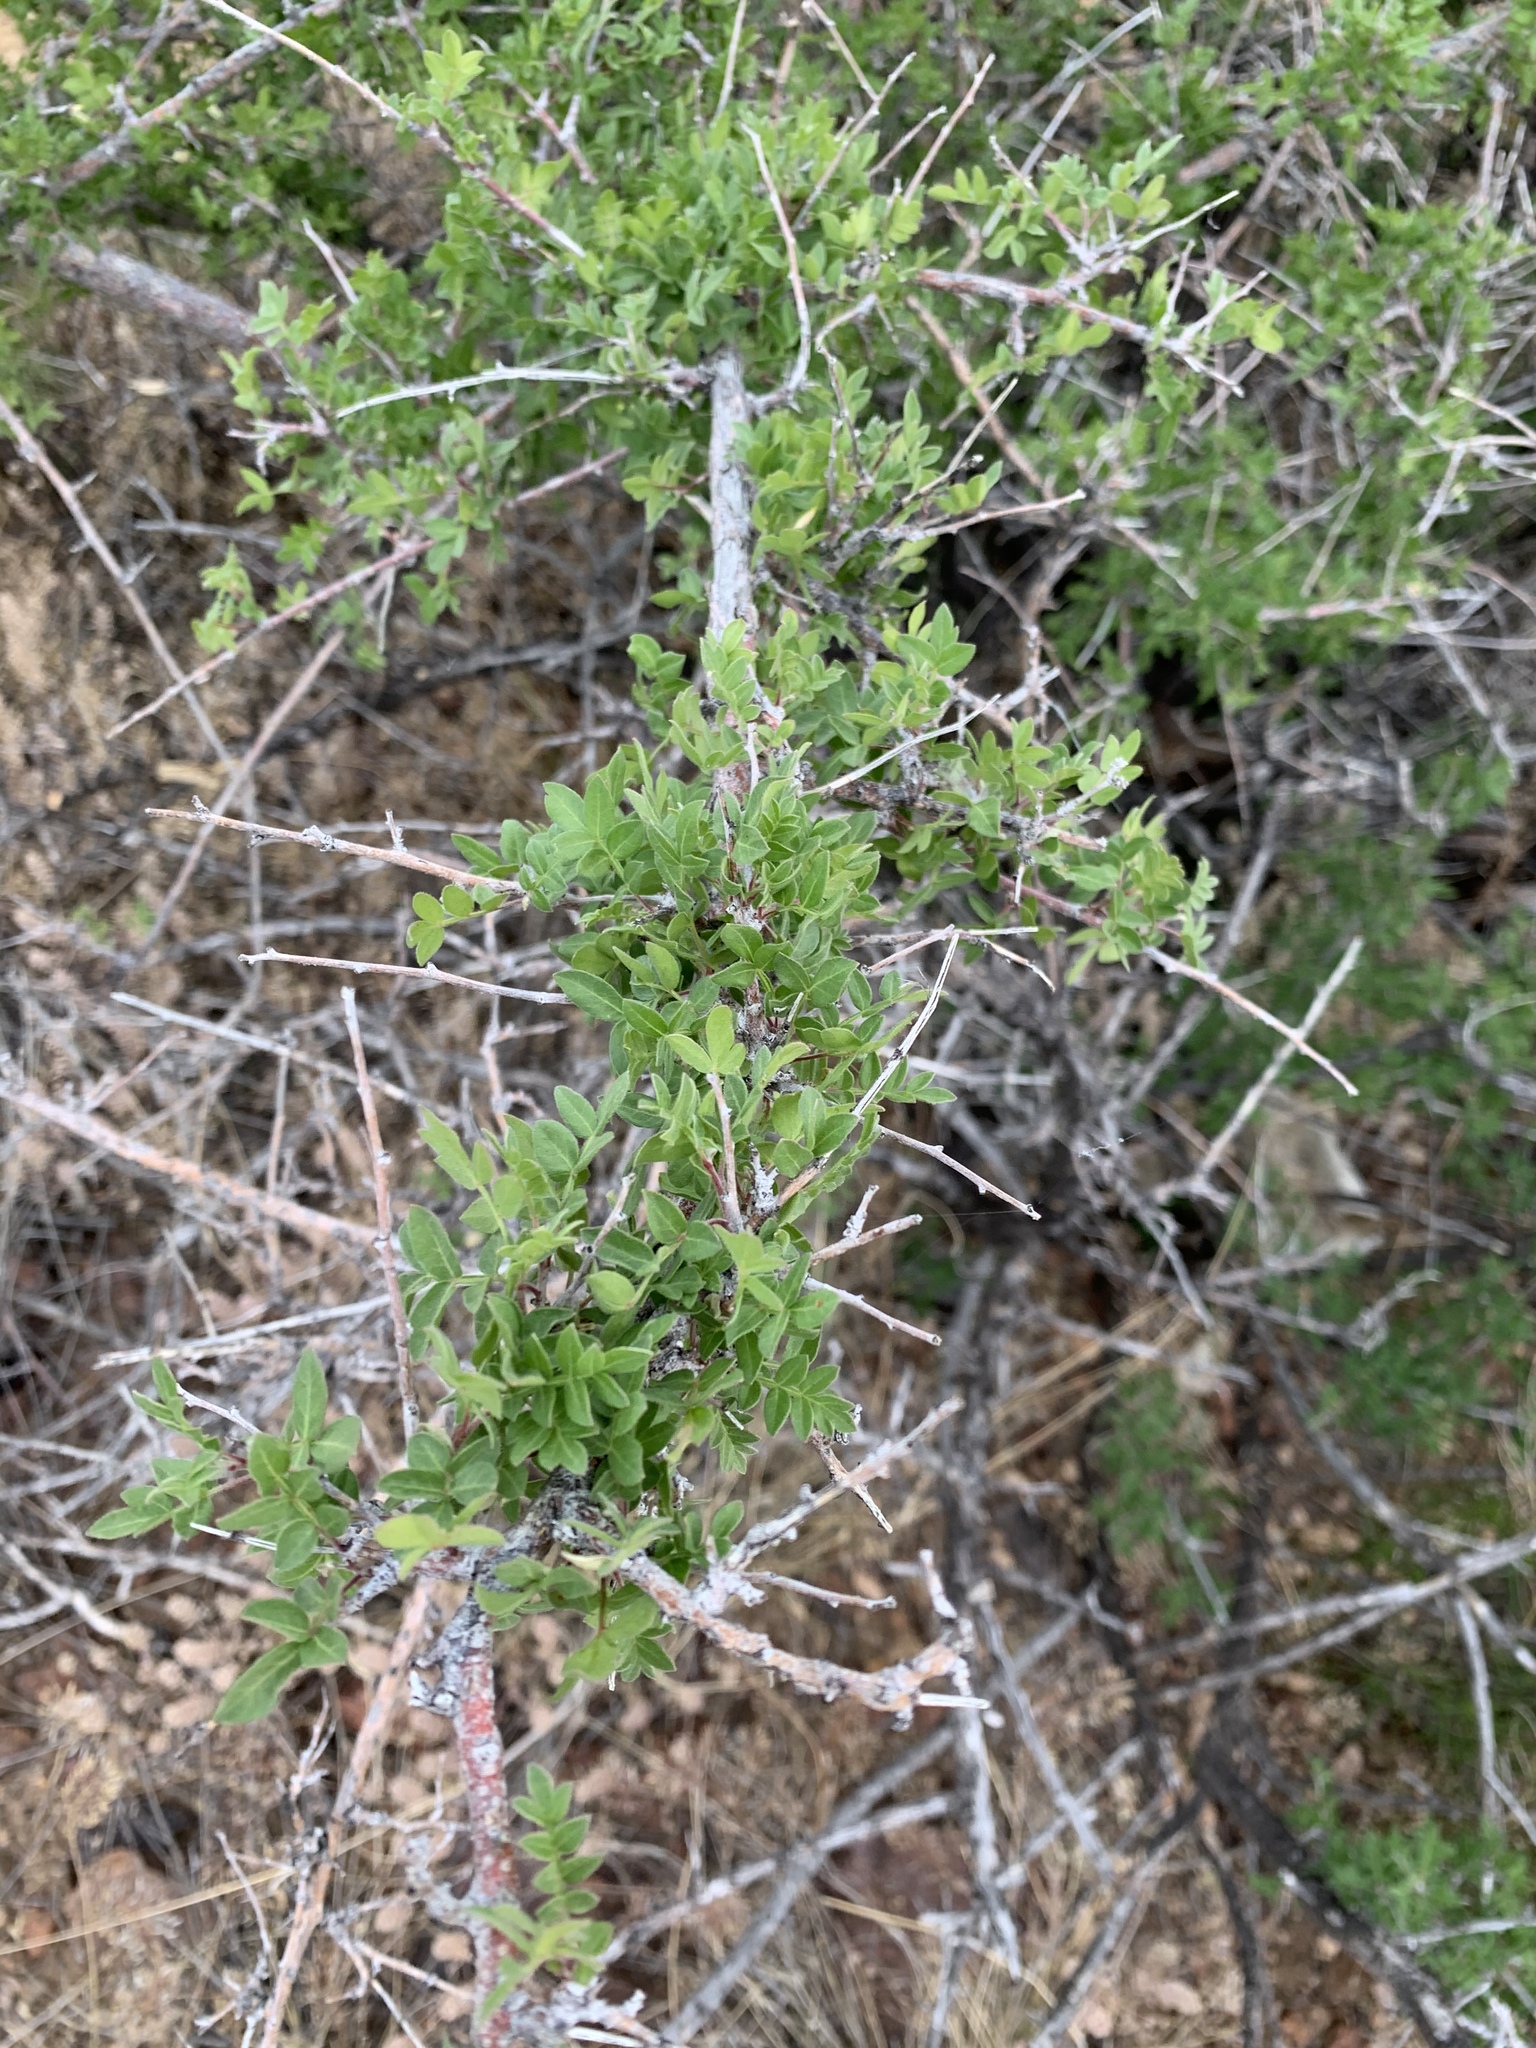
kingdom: Plantae
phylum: Tracheophyta
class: Magnoliopsida
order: Sapindales
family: Anacardiaceae
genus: Rhus
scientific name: Rhus microphylla
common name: Desert sumac
